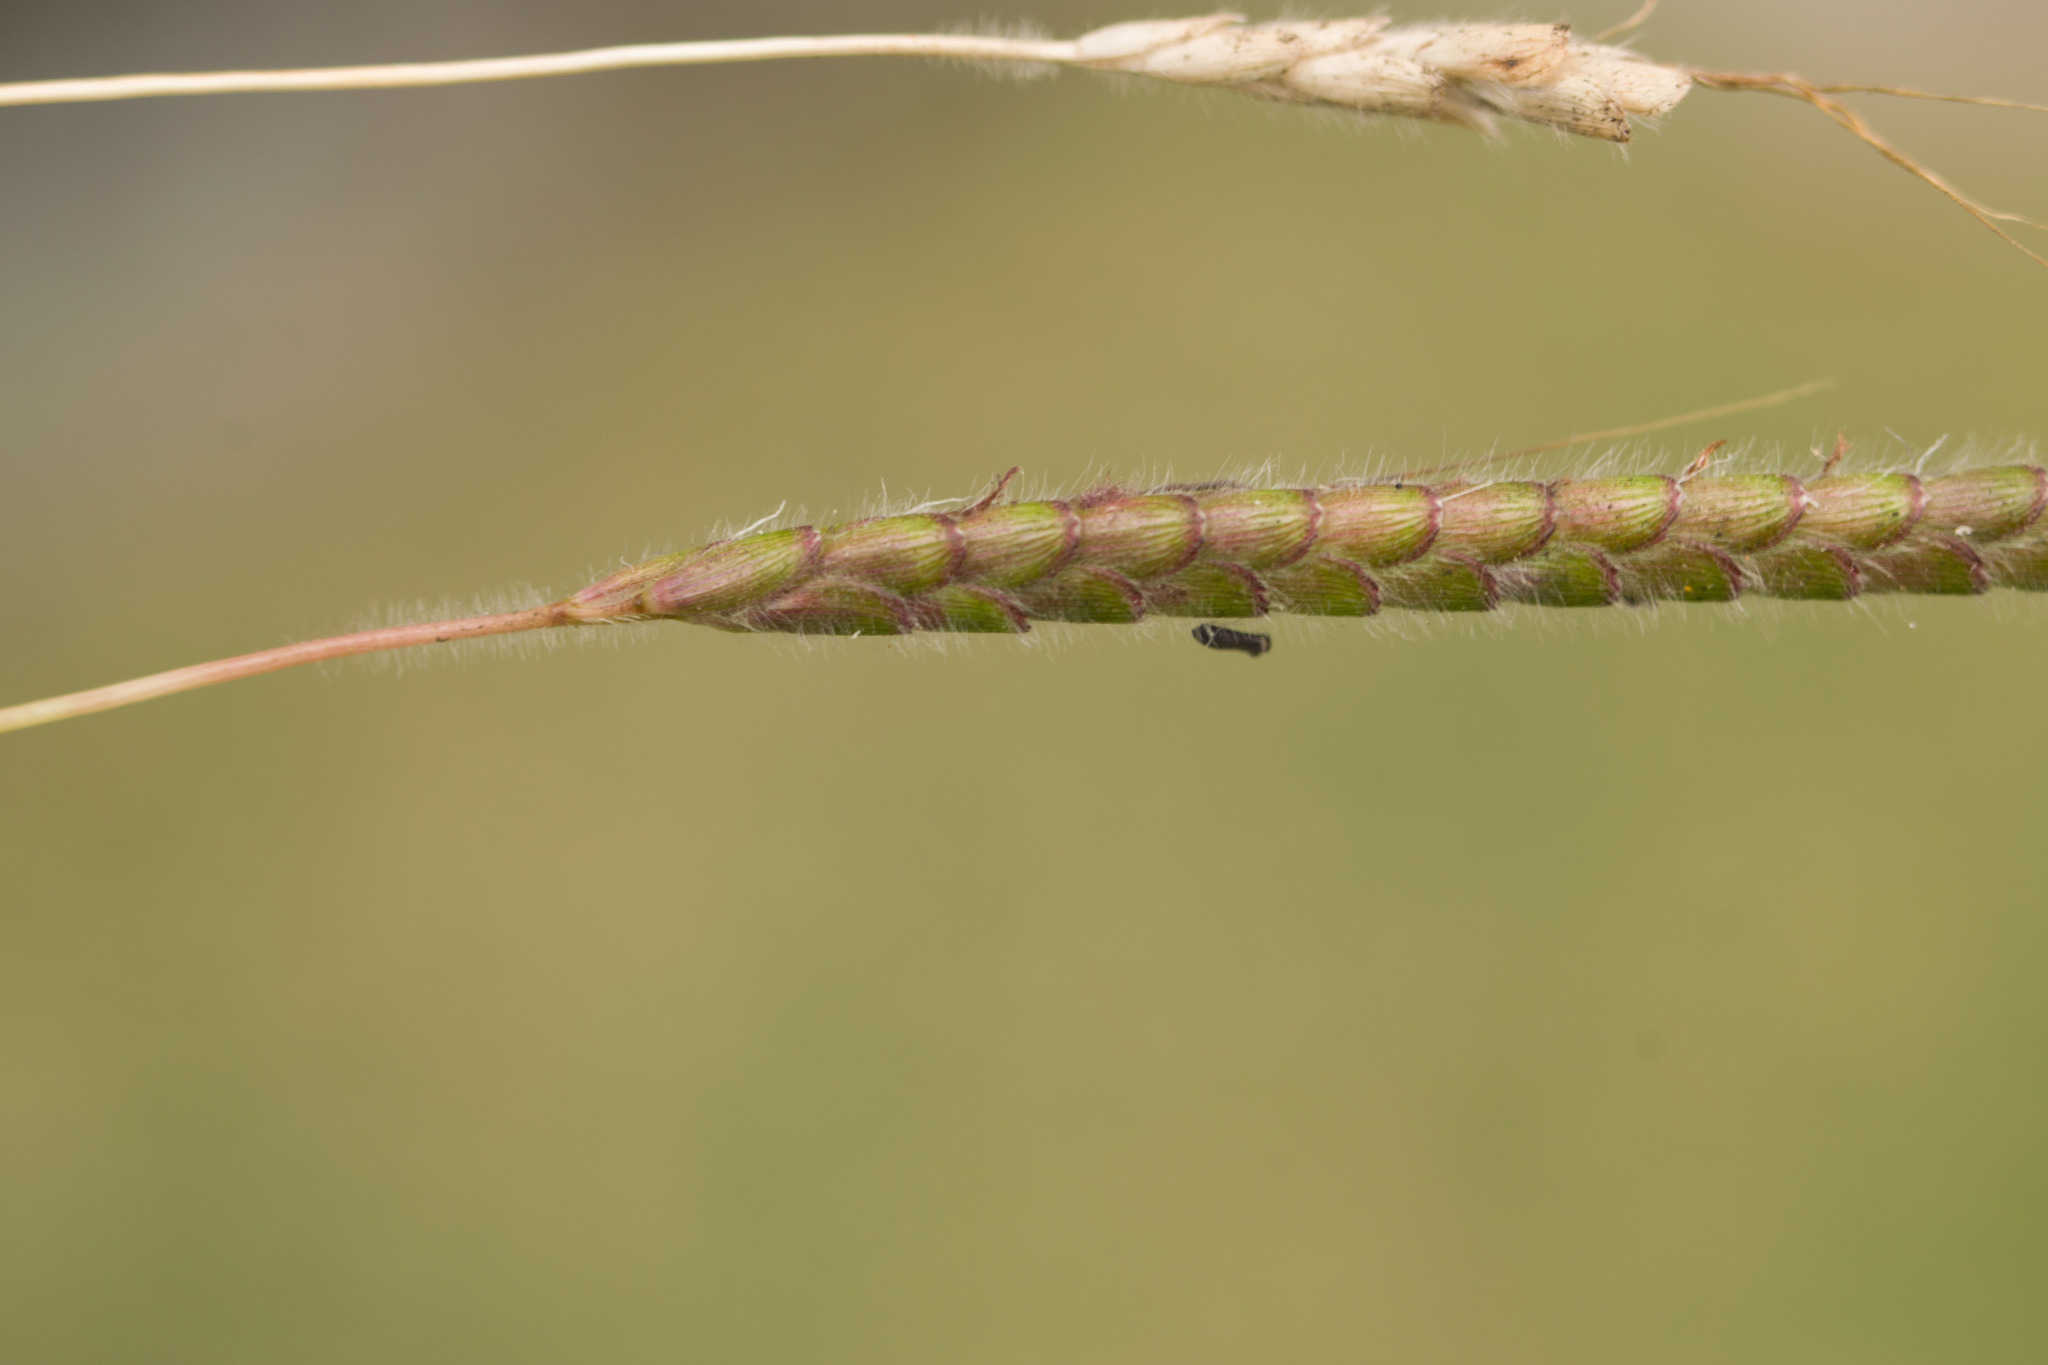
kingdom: Plantae
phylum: Tracheophyta
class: Liliopsida
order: Poales
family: Poaceae
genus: Dichanthium
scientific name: Dichanthium aristatum
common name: Angleton bluestem
